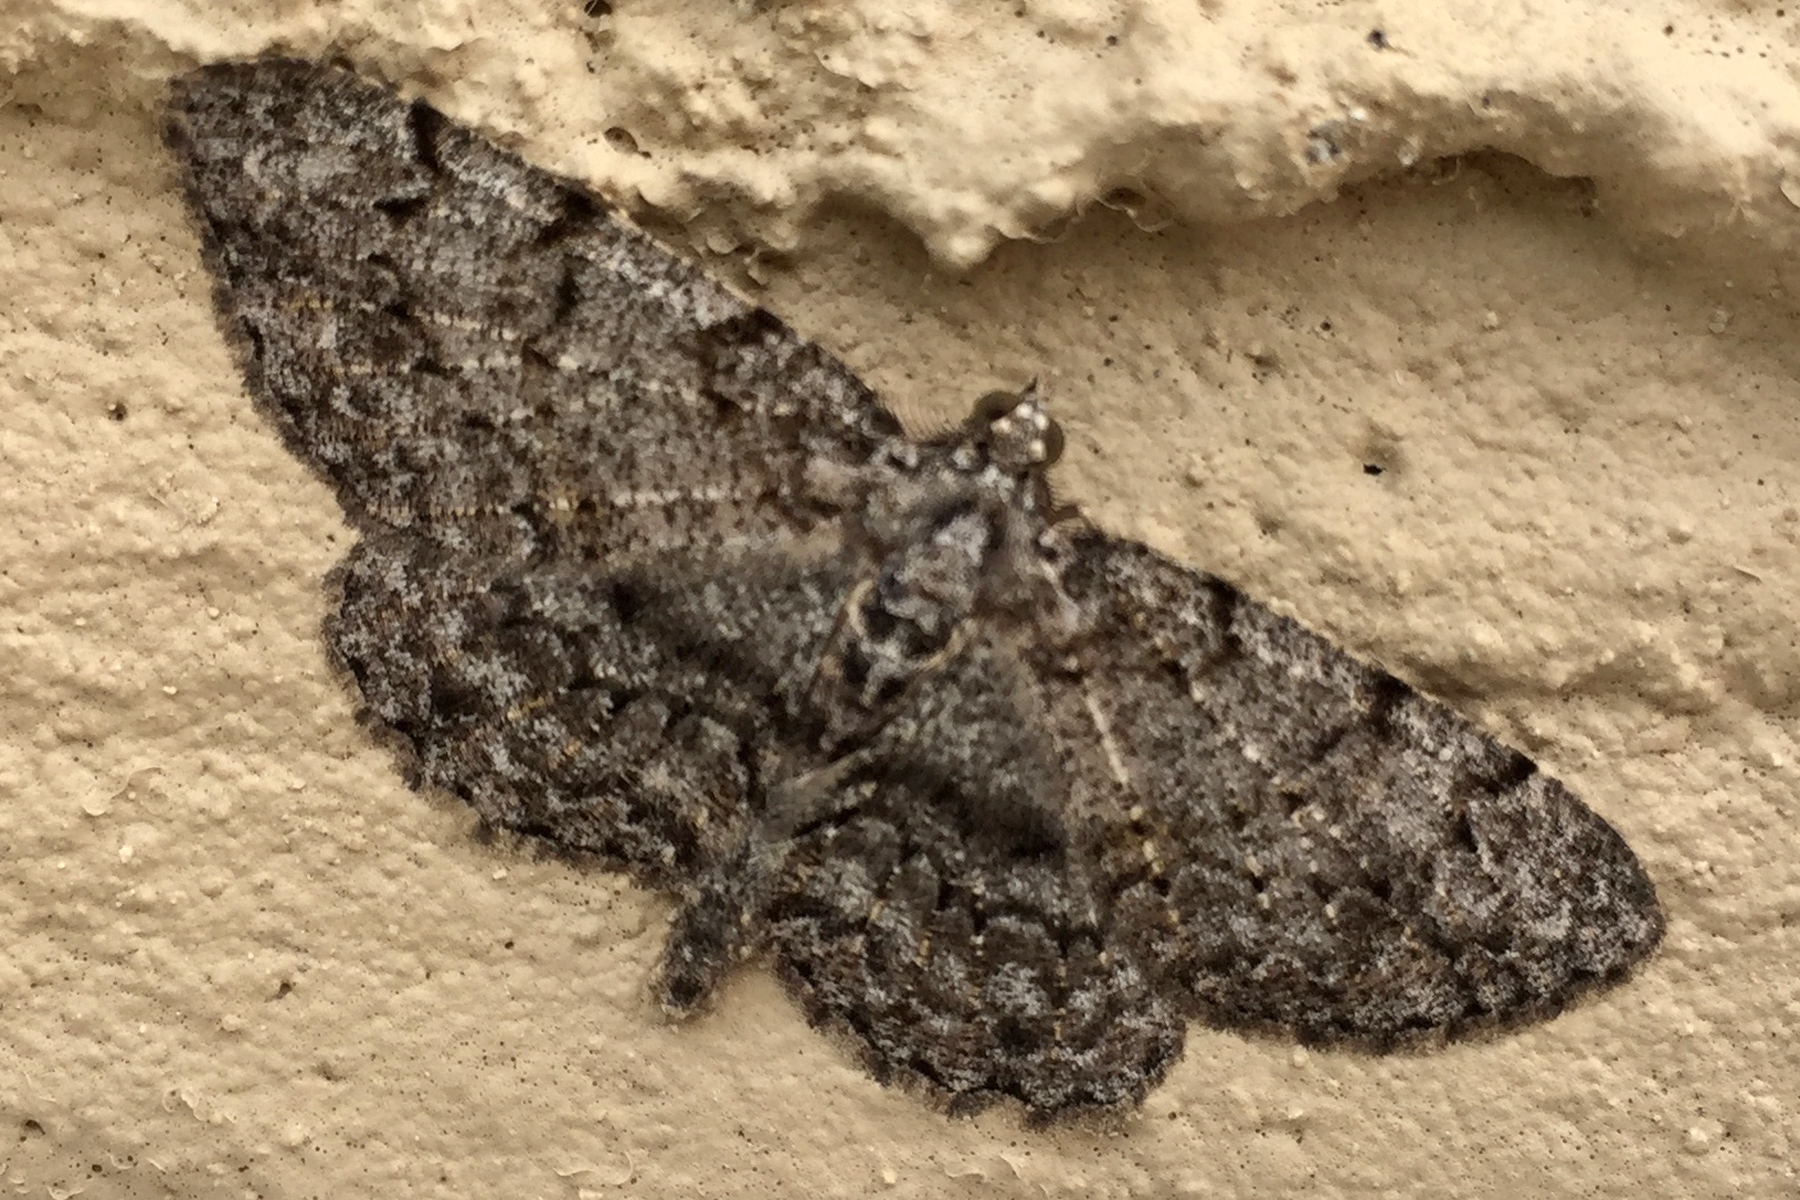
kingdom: Animalia
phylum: Arthropoda
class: Insecta
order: Lepidoptera
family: Geometridae
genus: Protoboarmia
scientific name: Protoboarmia porcelaria
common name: Porcelain gray
